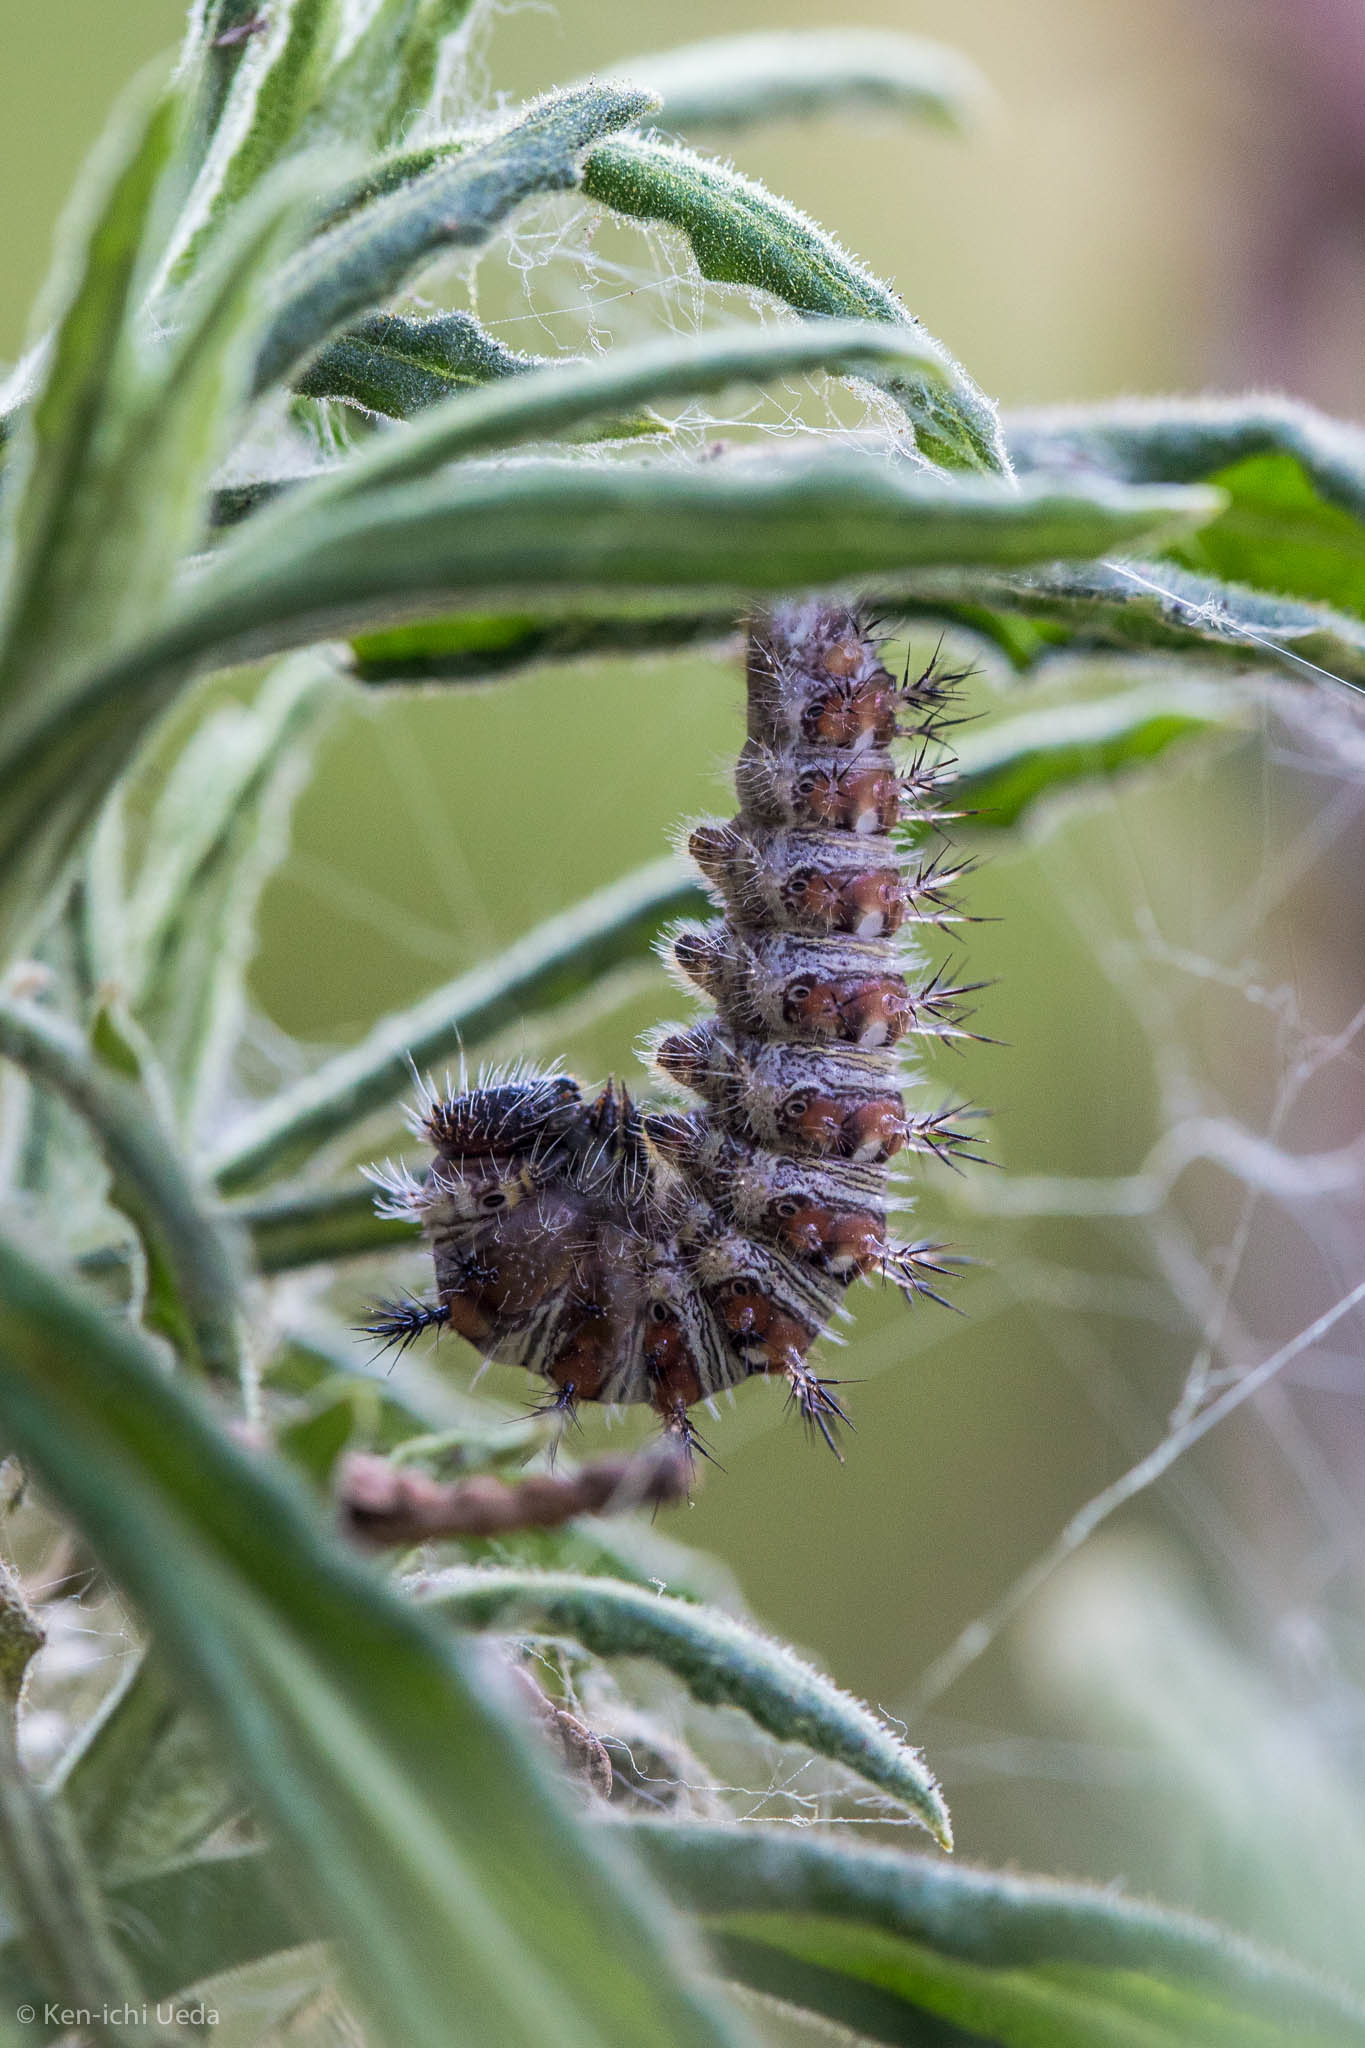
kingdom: Animalia
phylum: Arthropoda
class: Insecta
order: Lepidoptera
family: Nymphalidae
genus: Vanessa
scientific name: Vanessa virginiensis
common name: American lady
